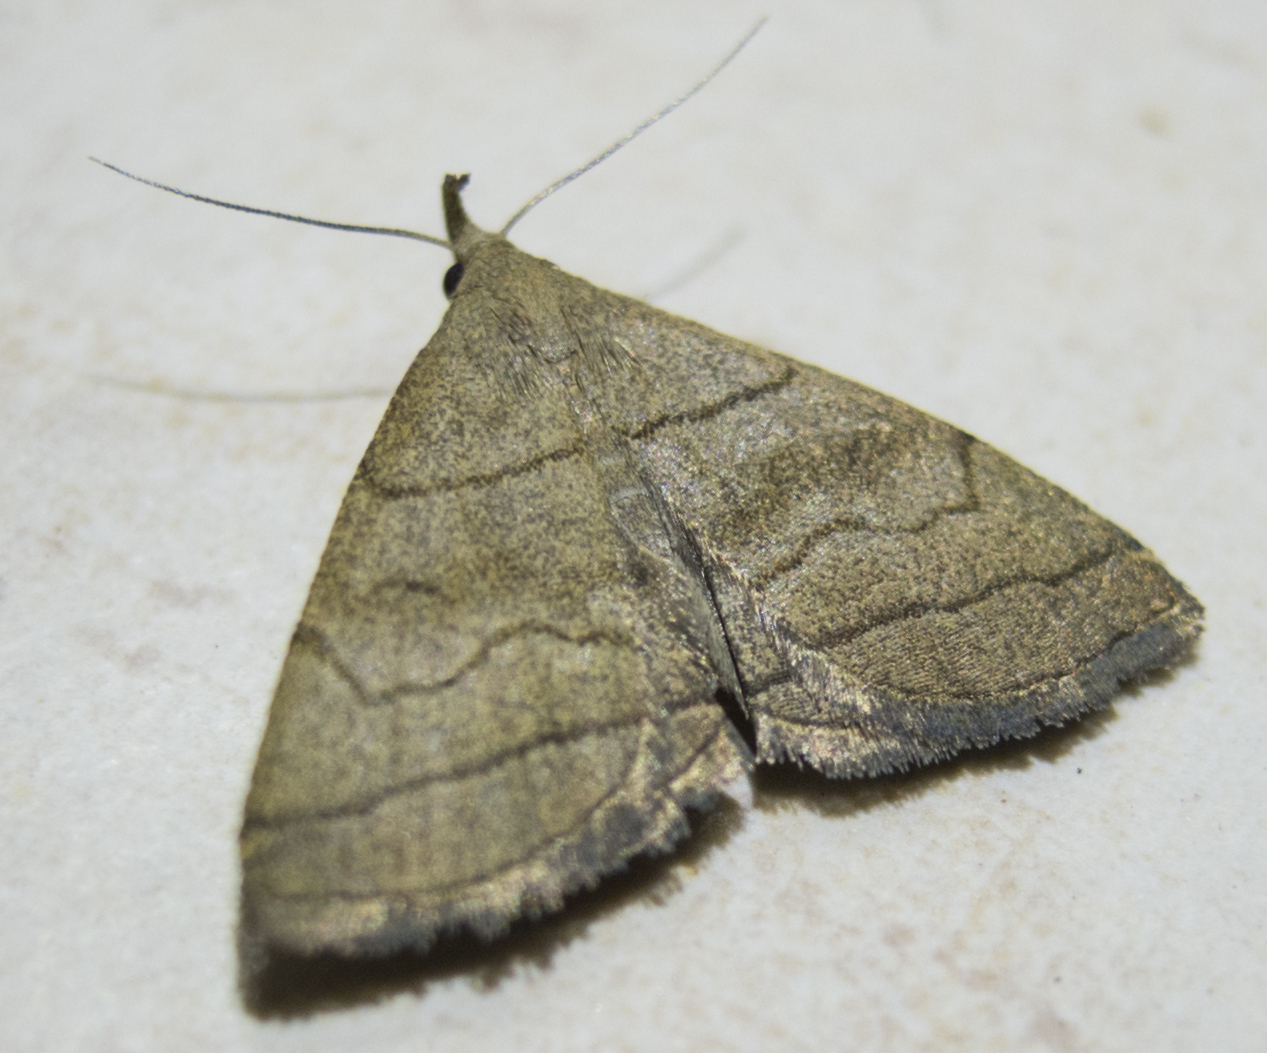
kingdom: Animalia
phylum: Arthropoda
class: Insecta
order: Lepidoptera
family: Erebidae
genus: Herminia
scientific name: Herminia tarsicrinalis
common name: Shaded fan-foot
